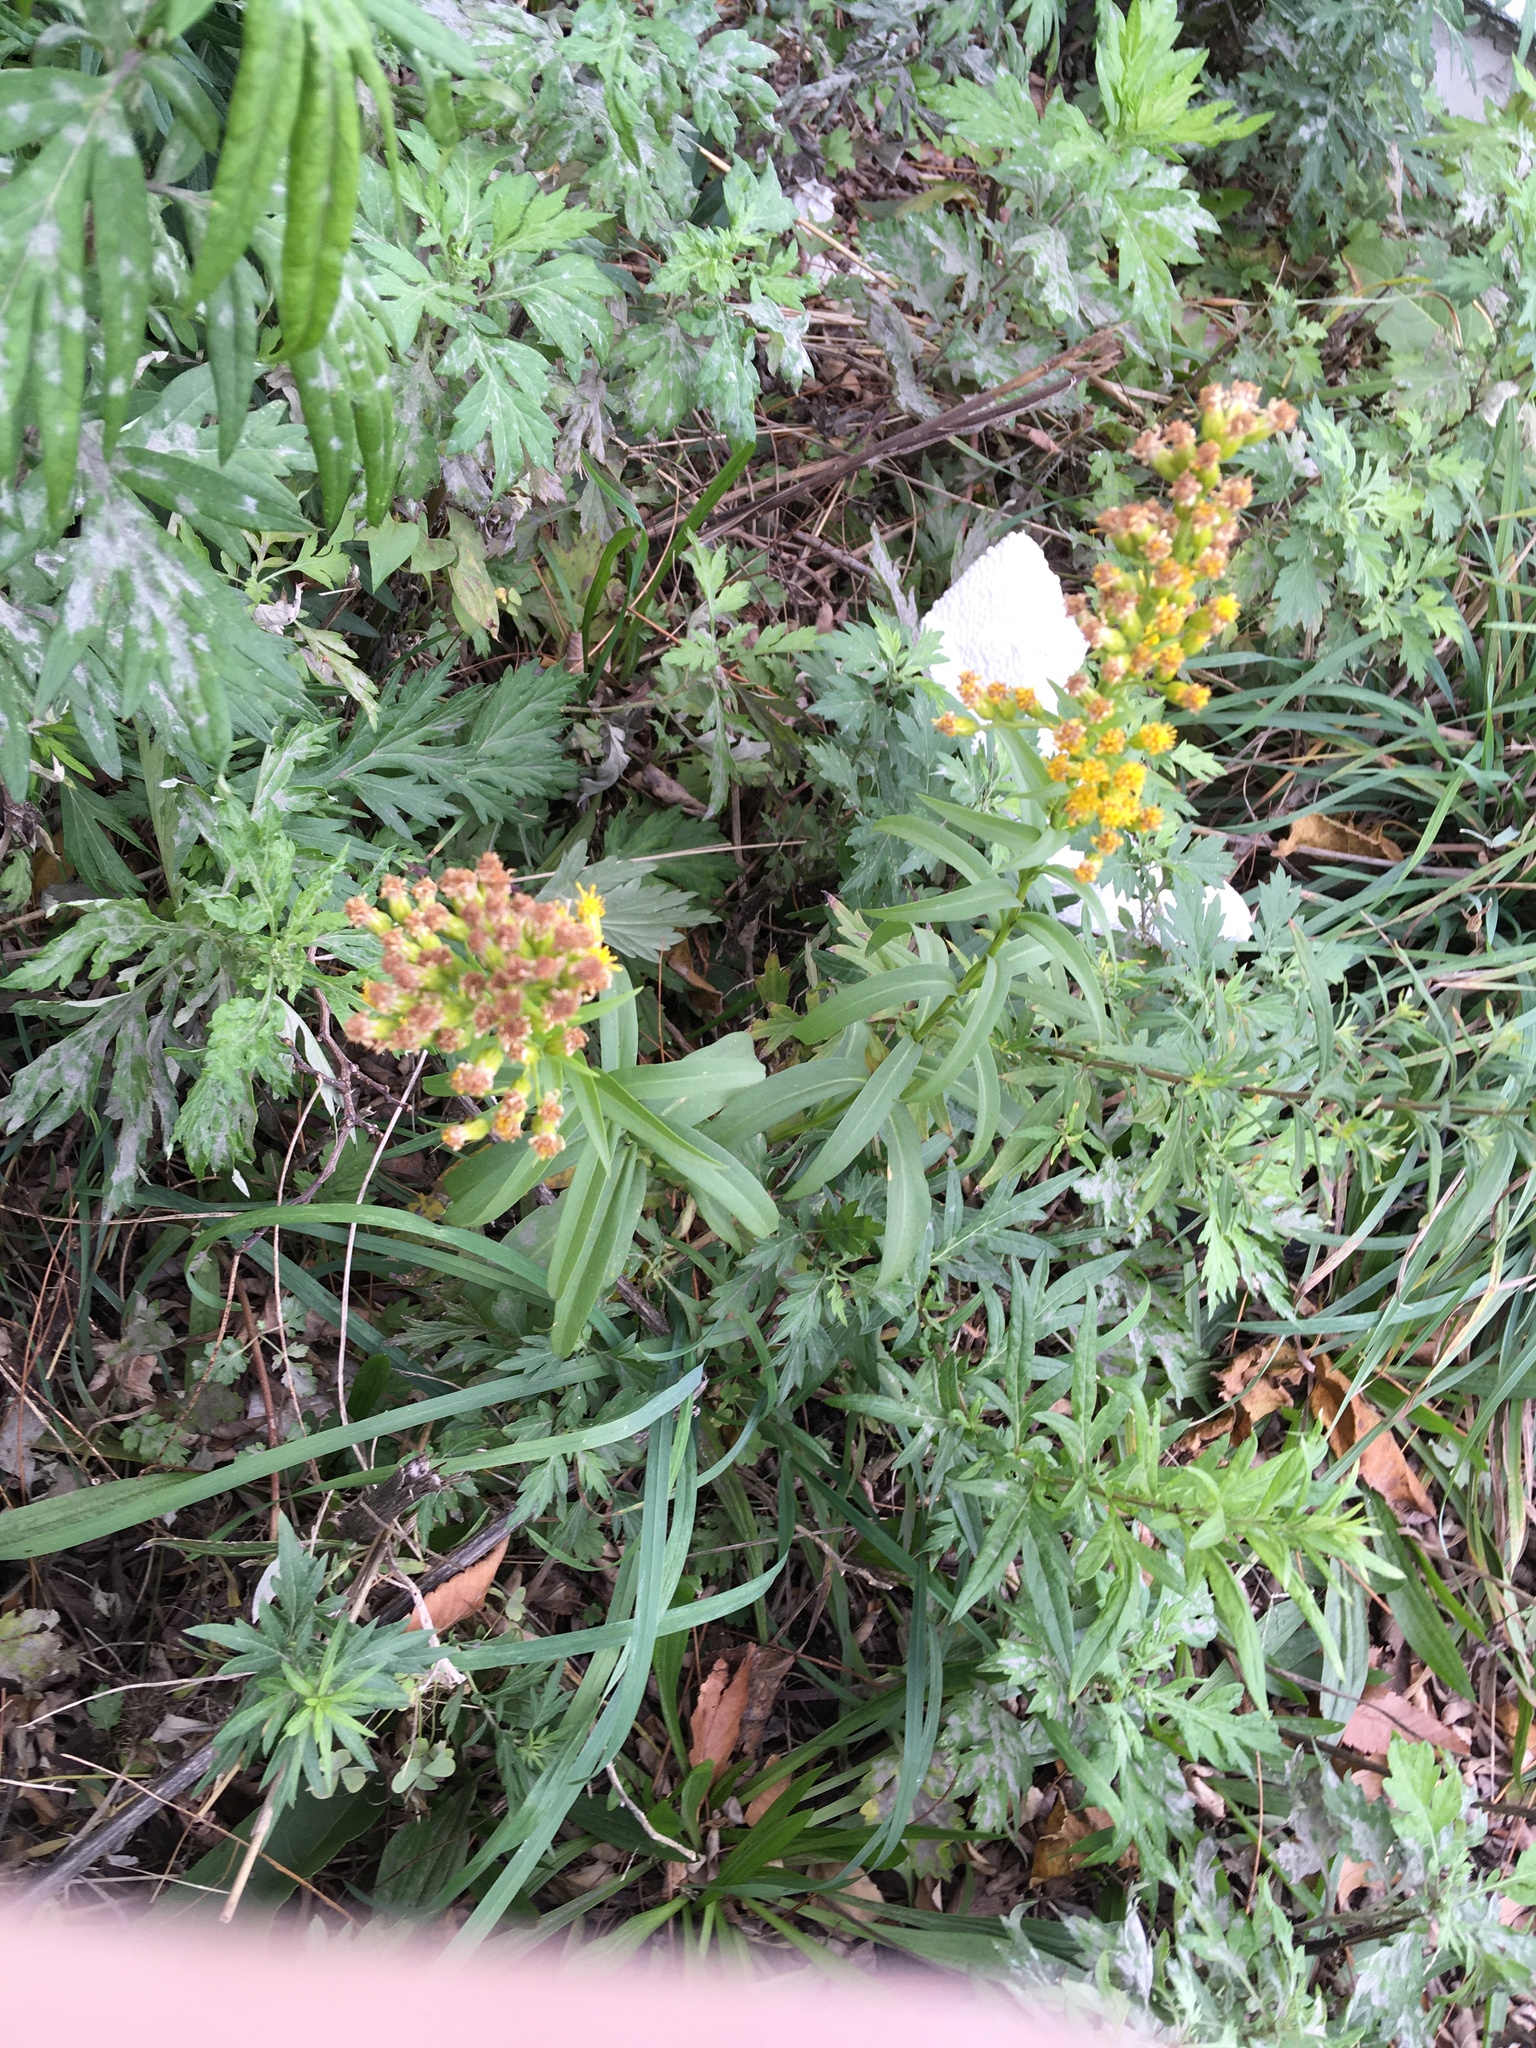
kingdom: Plantae
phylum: Tracheophyta
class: Magnoliopsida
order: Asterales
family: Asteraceae
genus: Solidago
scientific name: Solidago sempervirens
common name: Salt-marsh goldenrod
